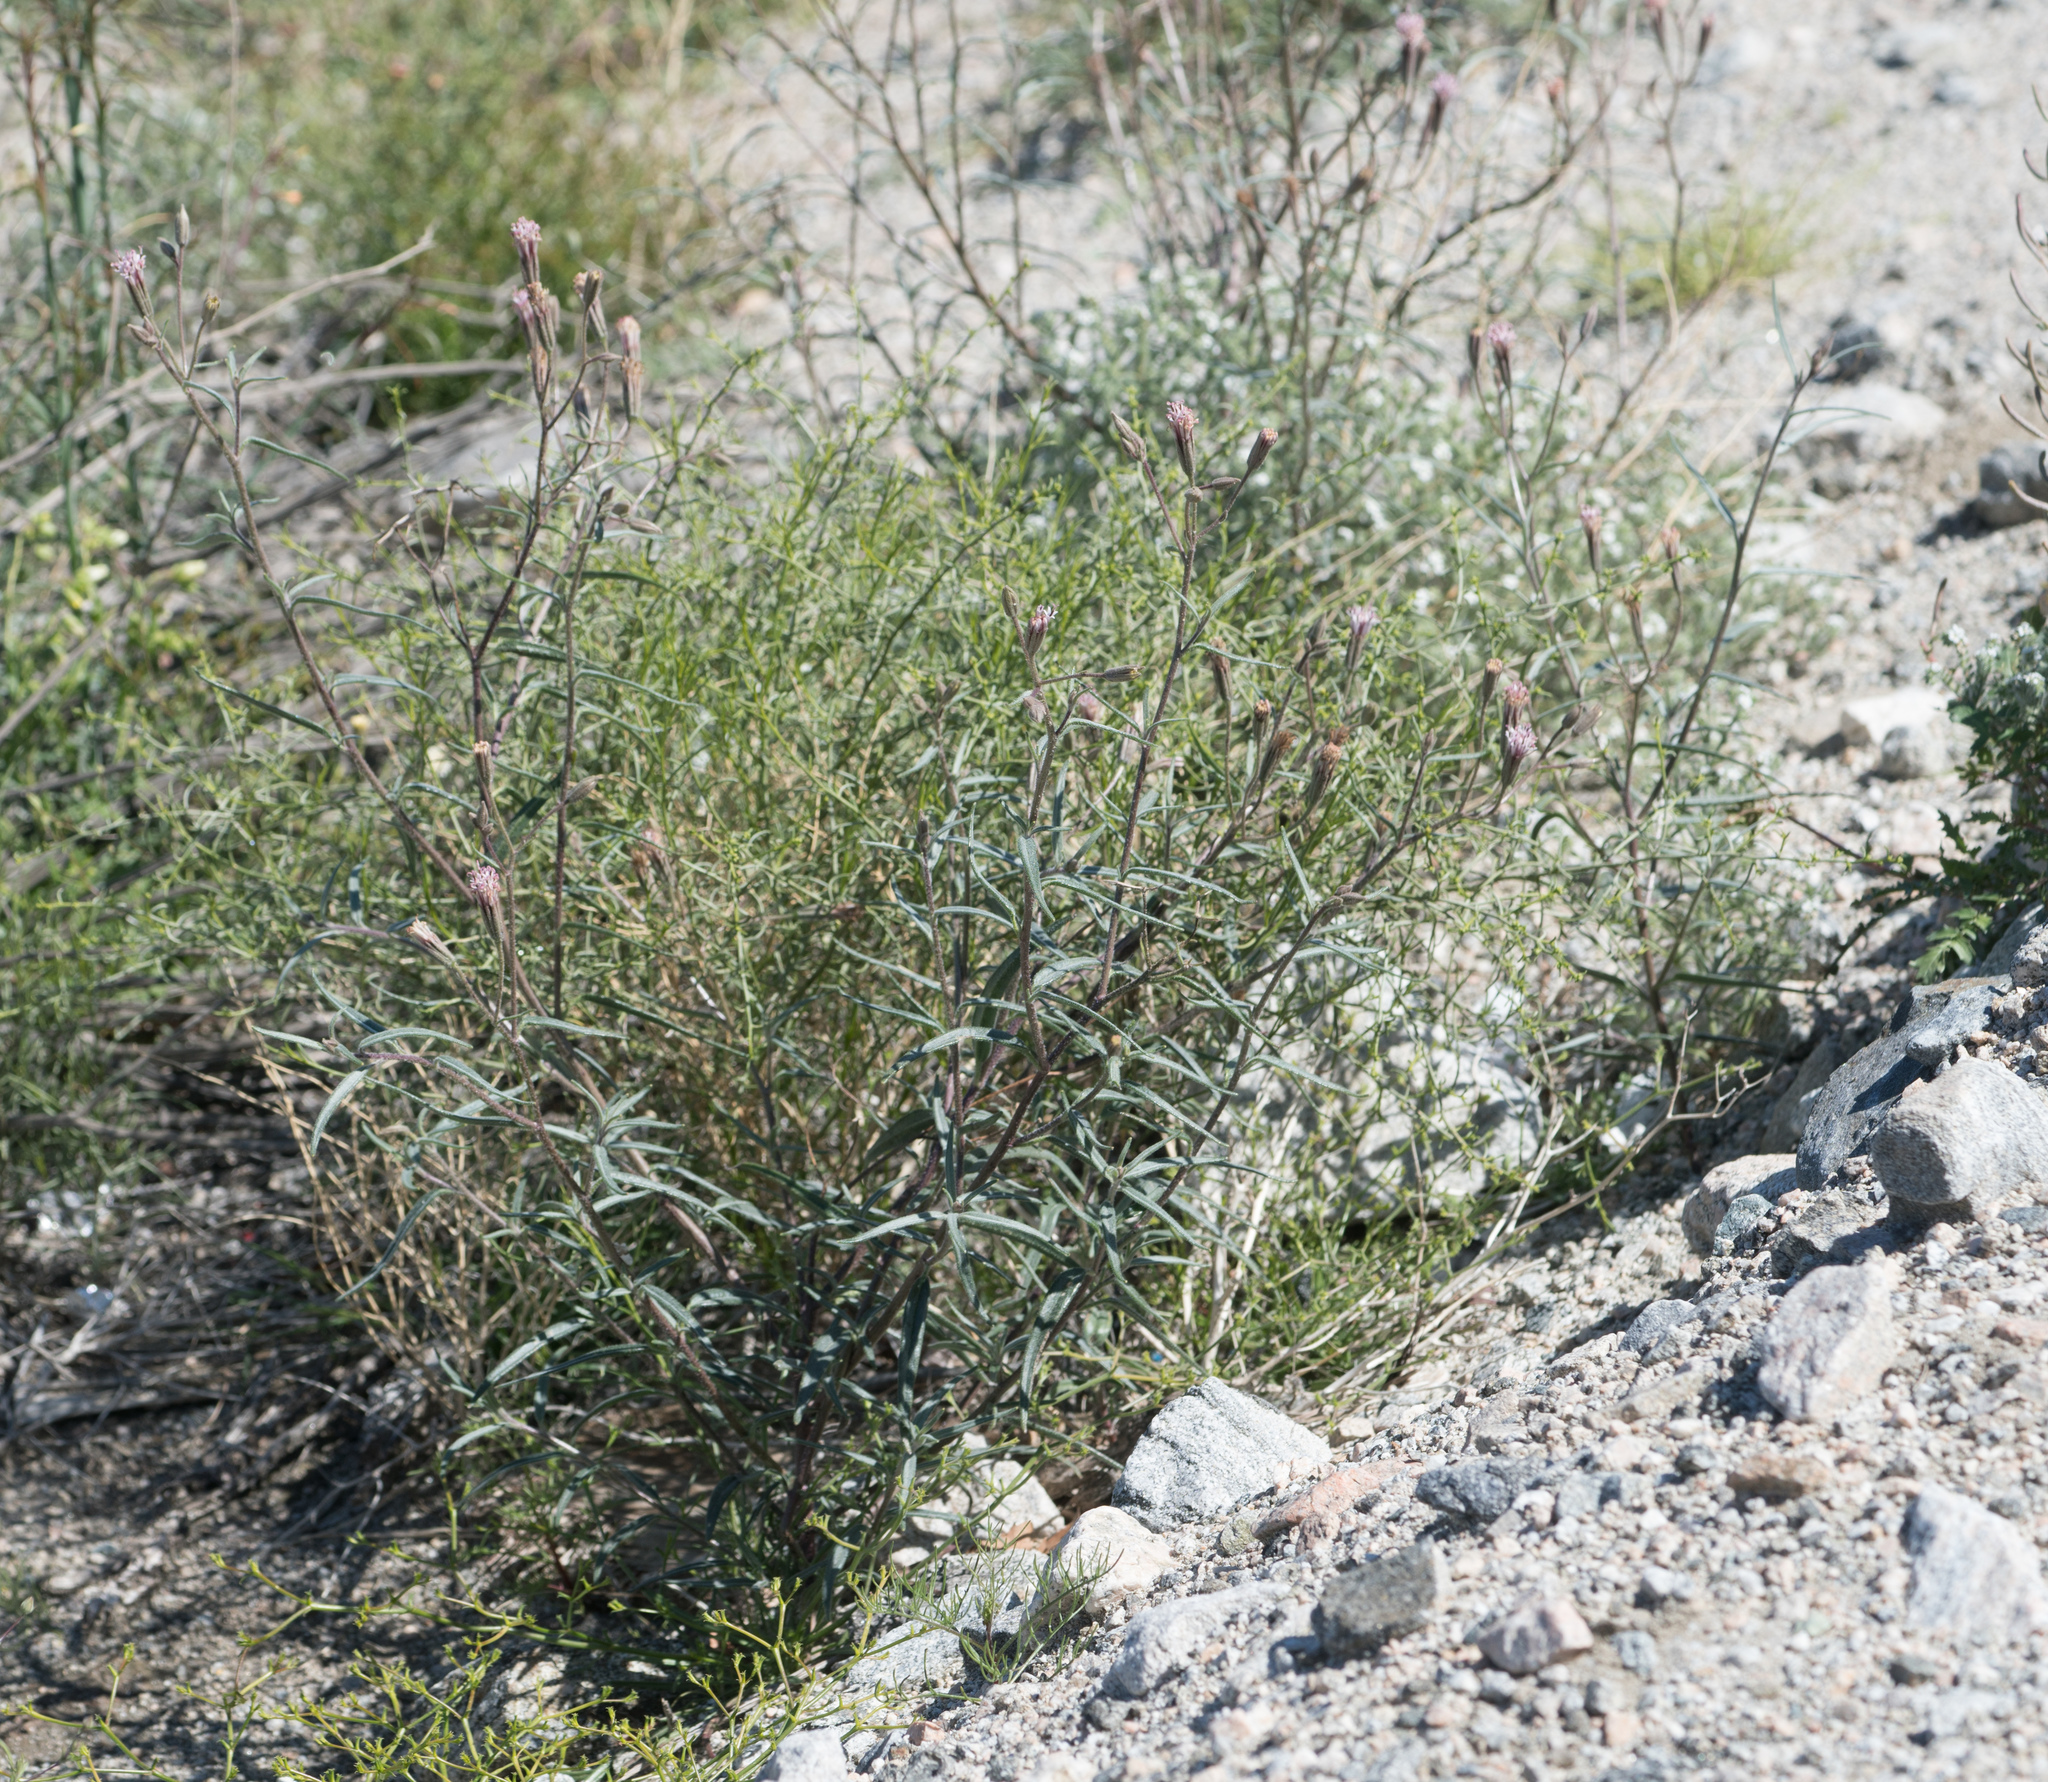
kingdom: Plantae
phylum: Tracheophyta
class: Magnoliopsida
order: Asterales
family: Asteraceae
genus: Palafoxia
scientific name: Palafoxia arida
